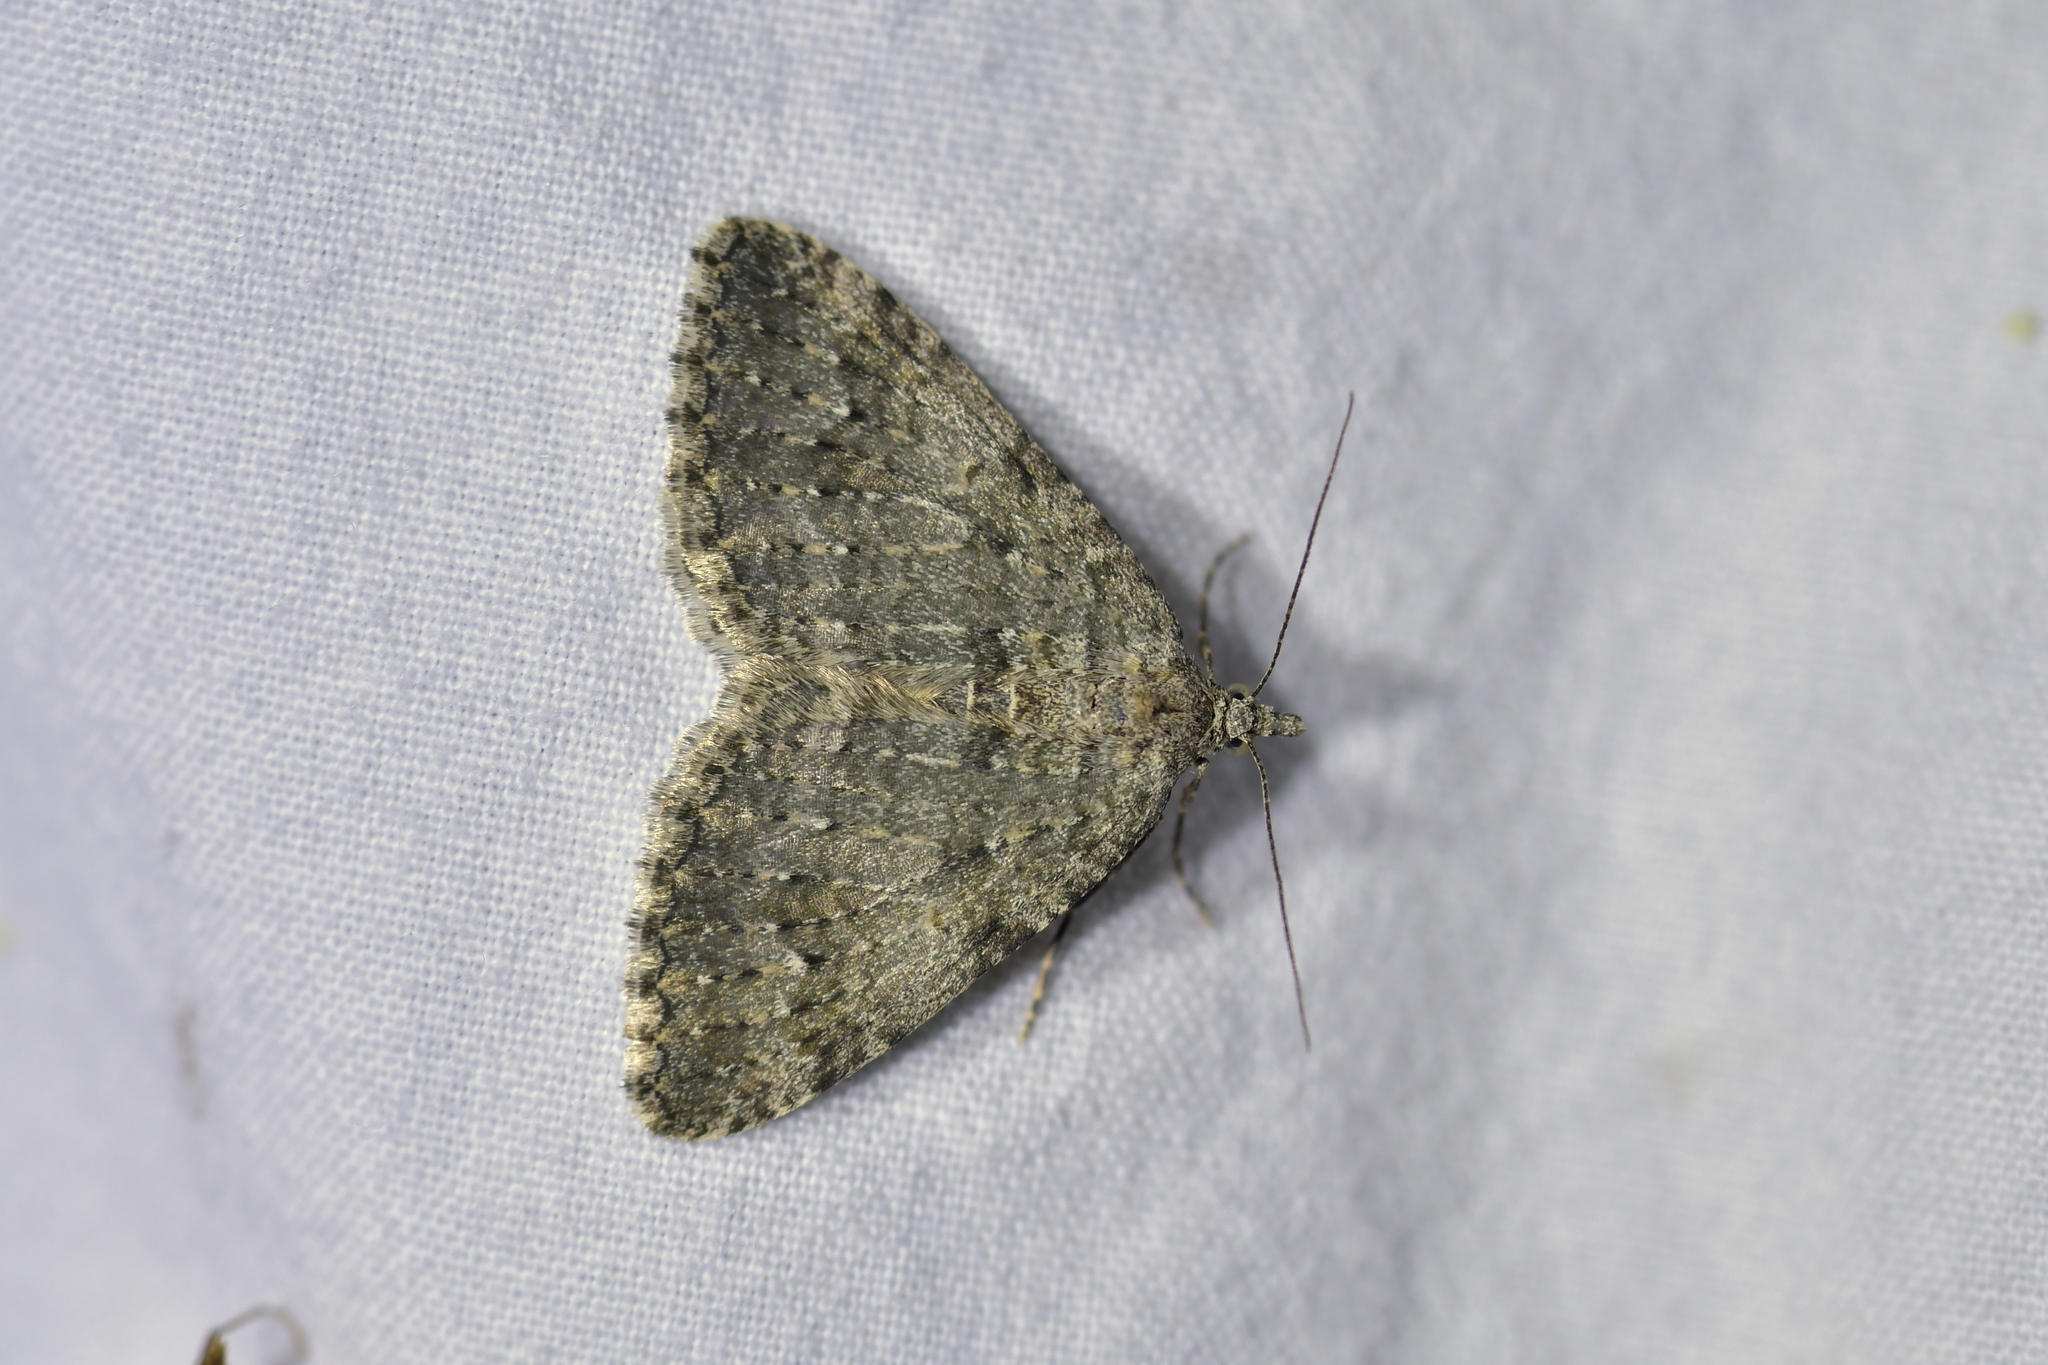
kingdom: Animalia
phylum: Arthropoda
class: Insecta
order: Lepidoptera
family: Geometridae
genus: Helastia
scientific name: Helastia semisignata
